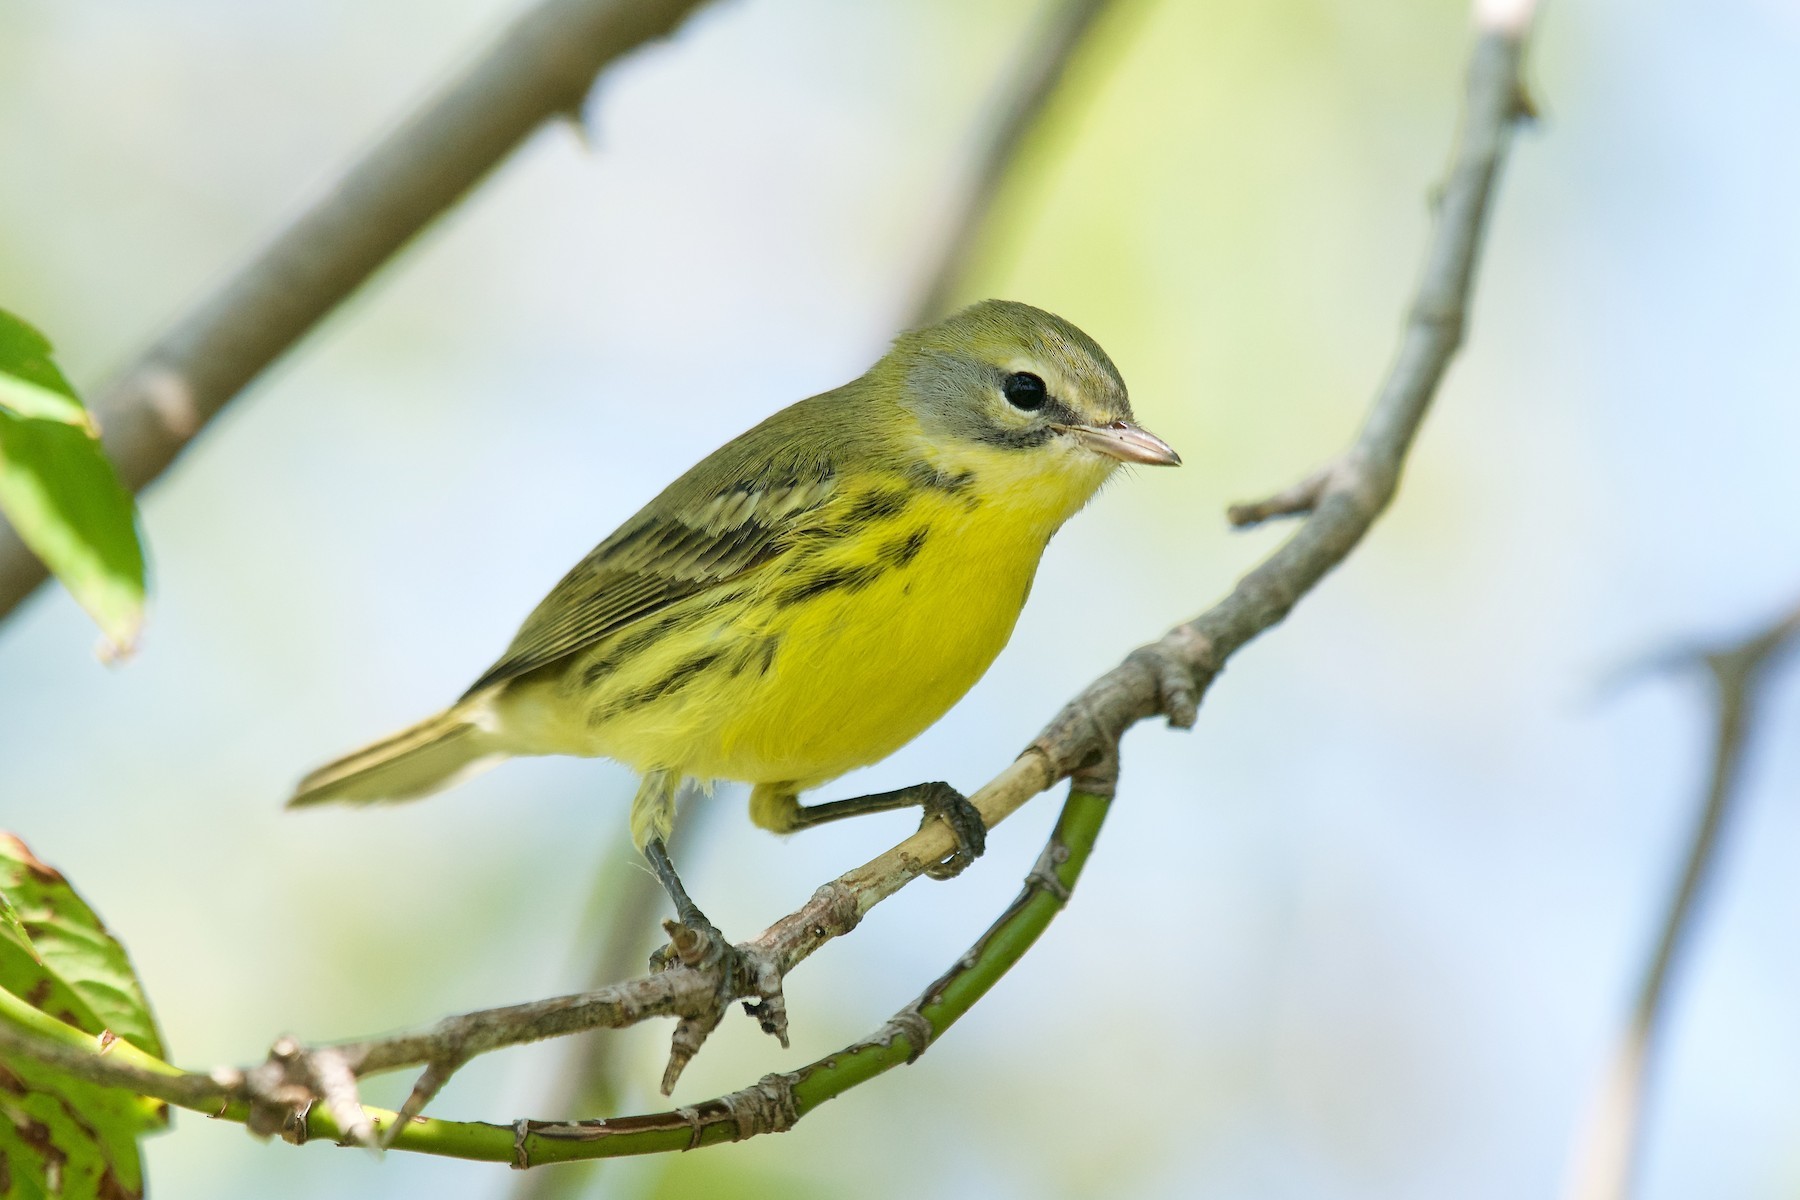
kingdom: Animalia
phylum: Chordata
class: Aves
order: Passeriformes
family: Parulidae
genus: Setophaga
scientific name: Setophaga discolor
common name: Prairie warbler
